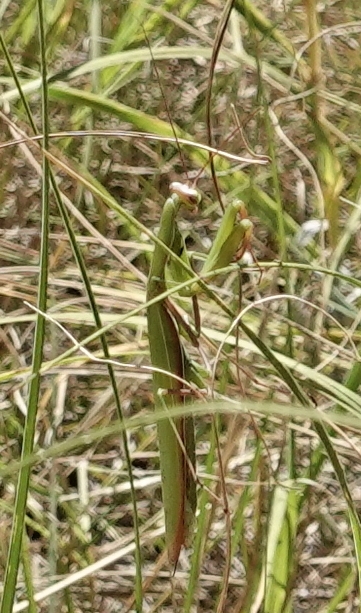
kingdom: Animalia
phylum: Arthropoda
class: Insecta
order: Mantodea
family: Mantidae
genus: Mantis
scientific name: Mantis religiosa
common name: Praying mantis
